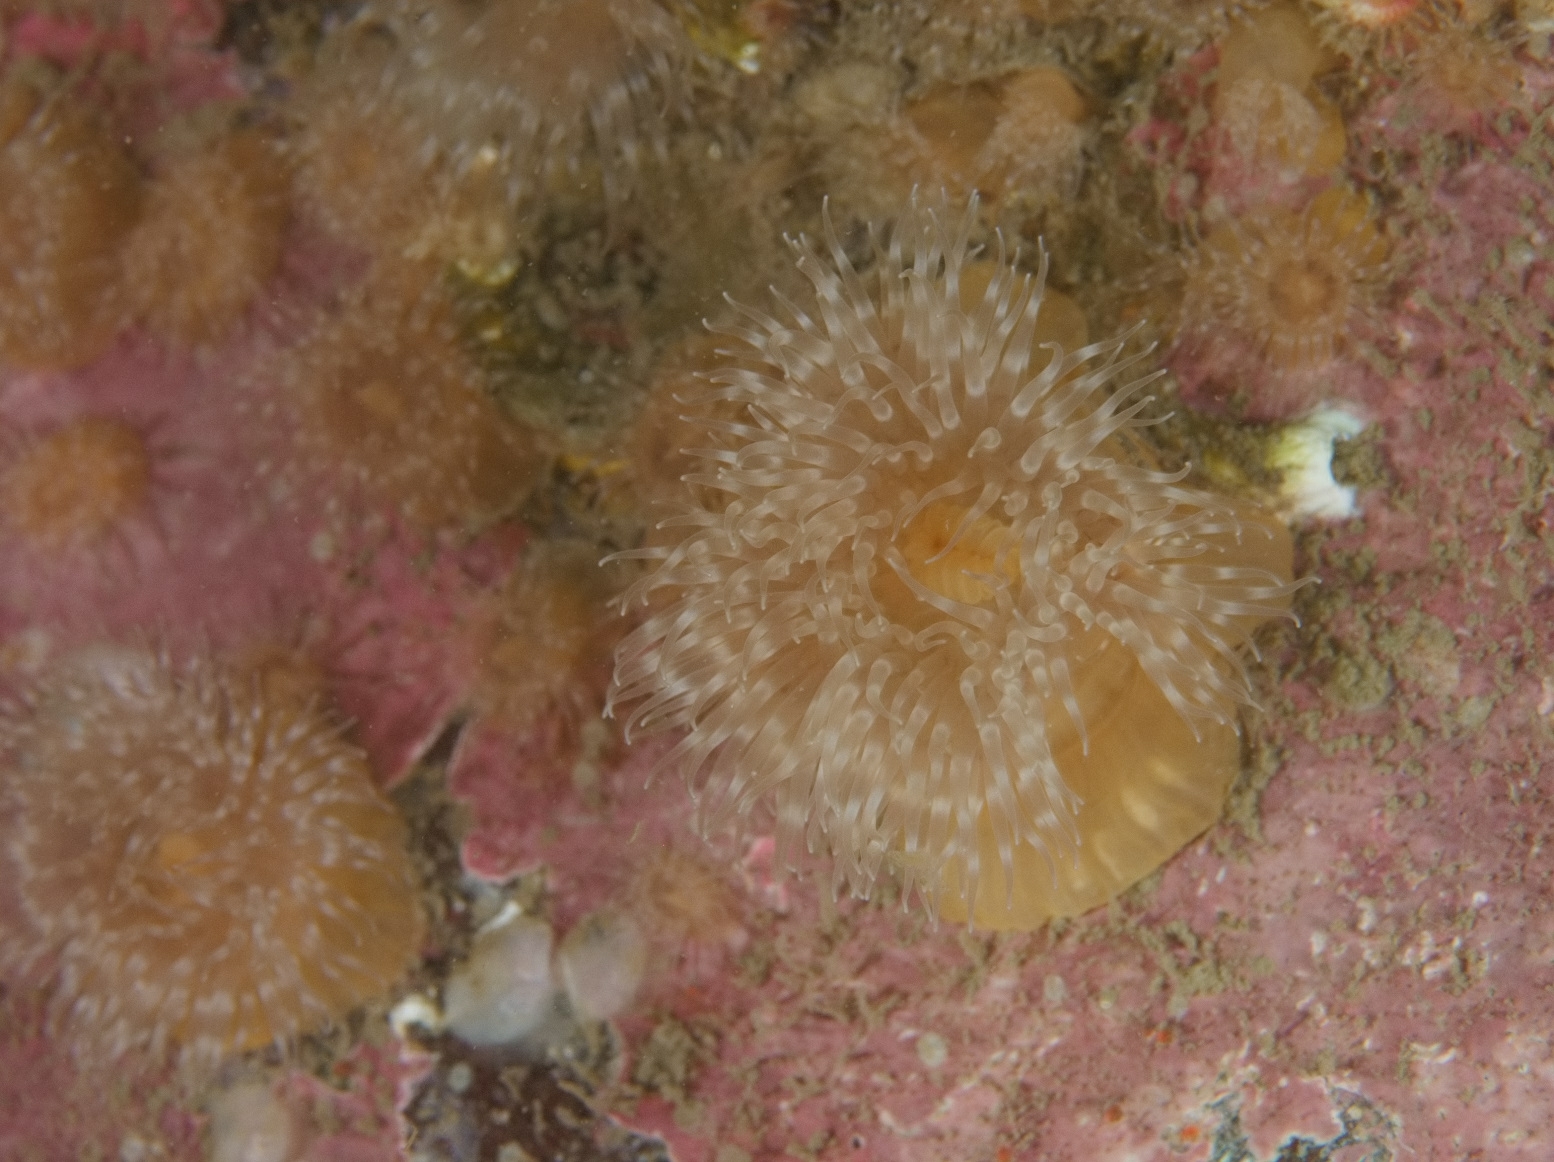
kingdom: Animalia
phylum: Cnidaria
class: Anthozoa
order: Actiniaria
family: Metridiidae
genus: Metridium
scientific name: Metridium senile
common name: Clonal plumose anemone
